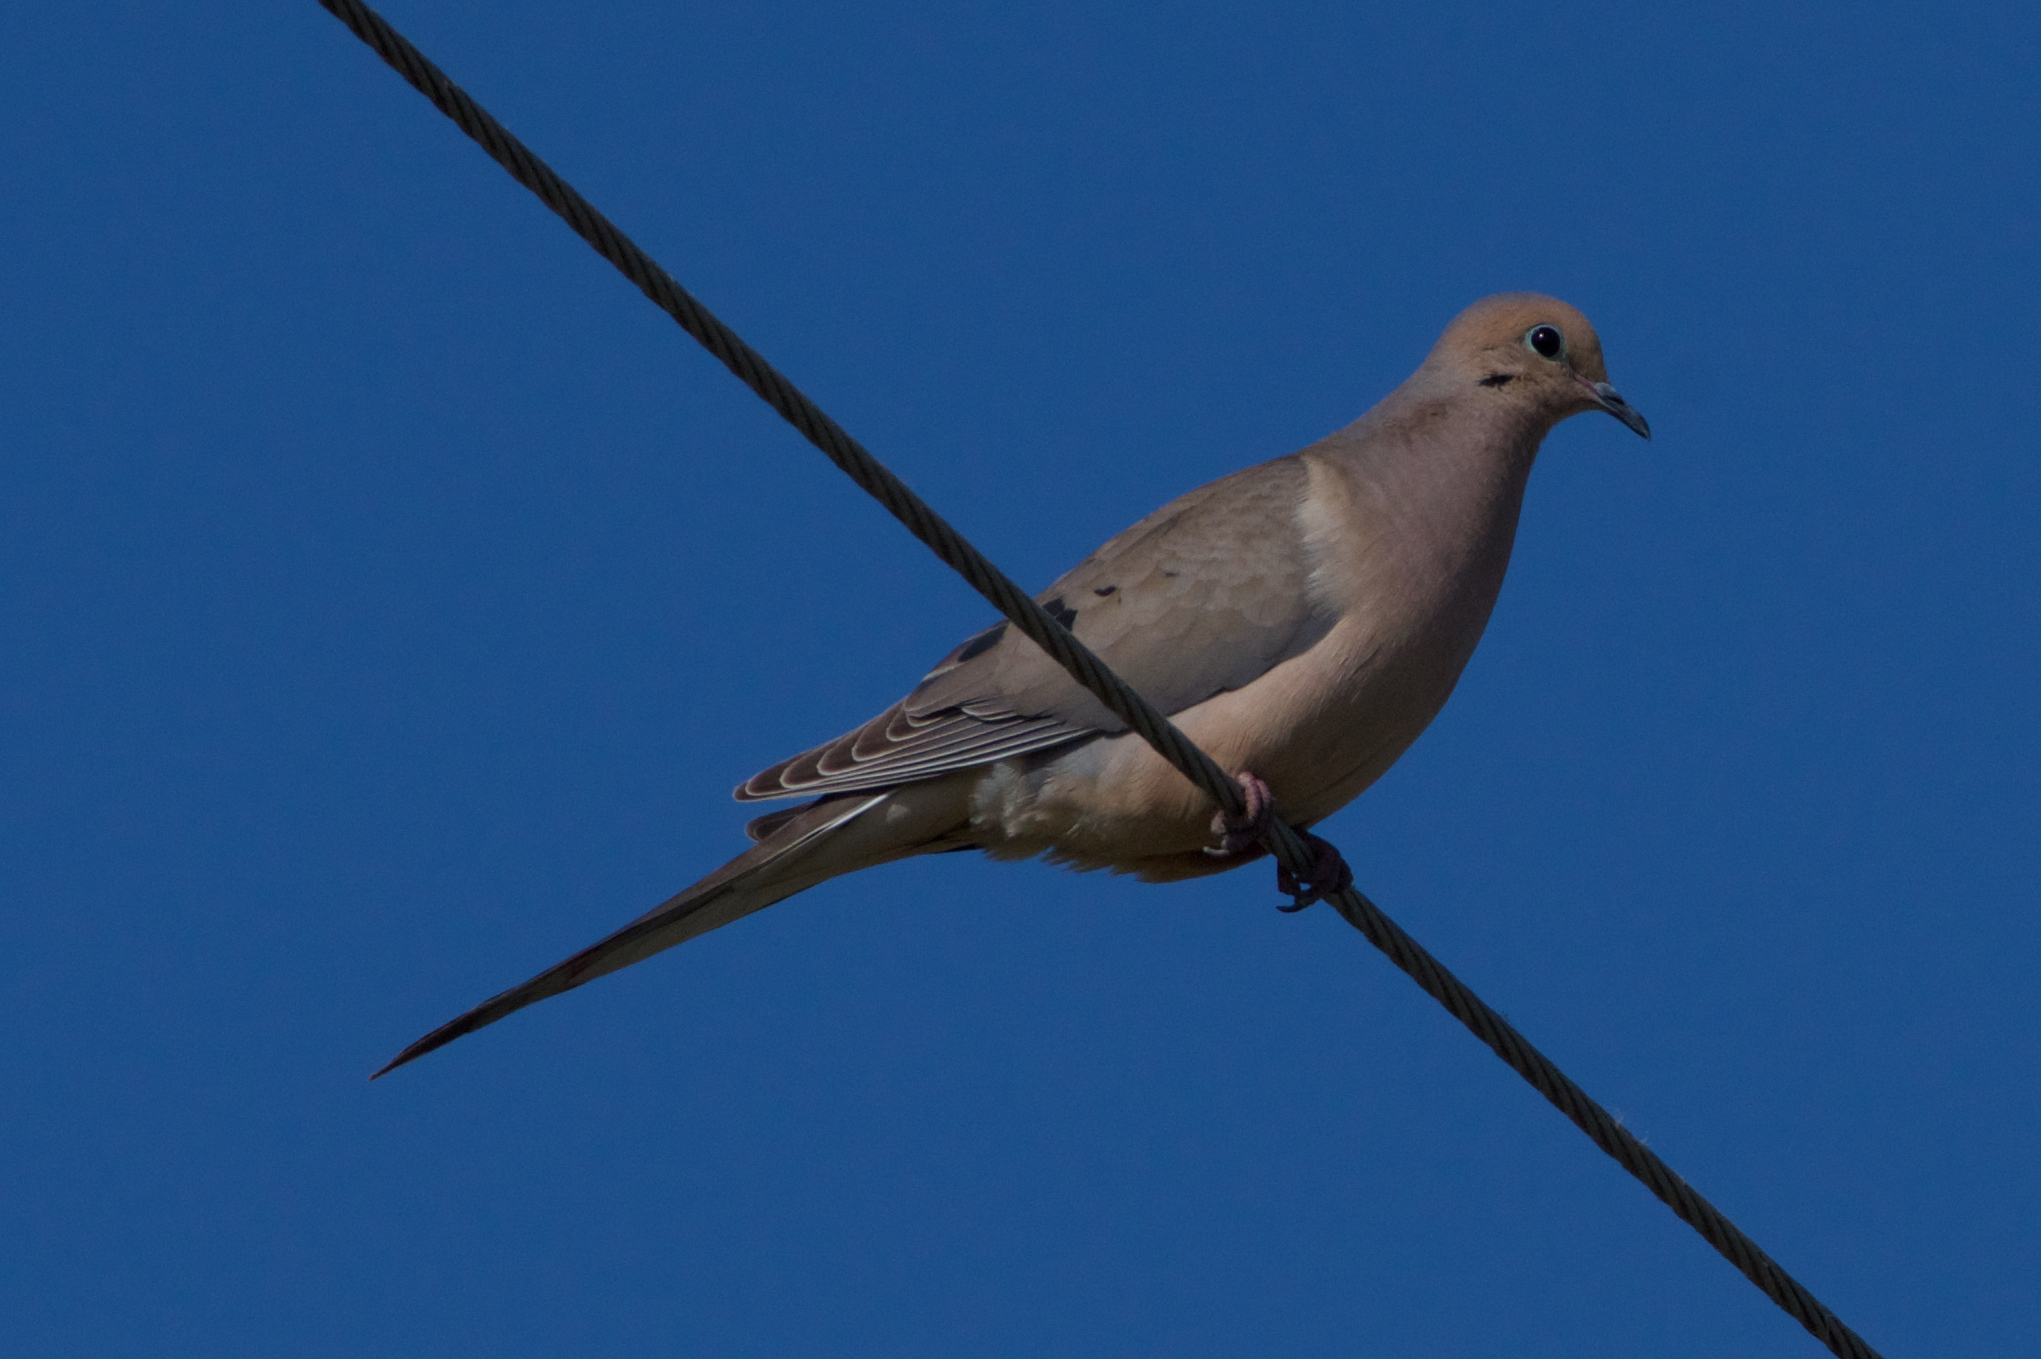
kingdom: Animalia
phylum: Chordata
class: Aves
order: Columbiformes
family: Columbidae
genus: Zenaida
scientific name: Zenaida macroura
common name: Mourning dove
